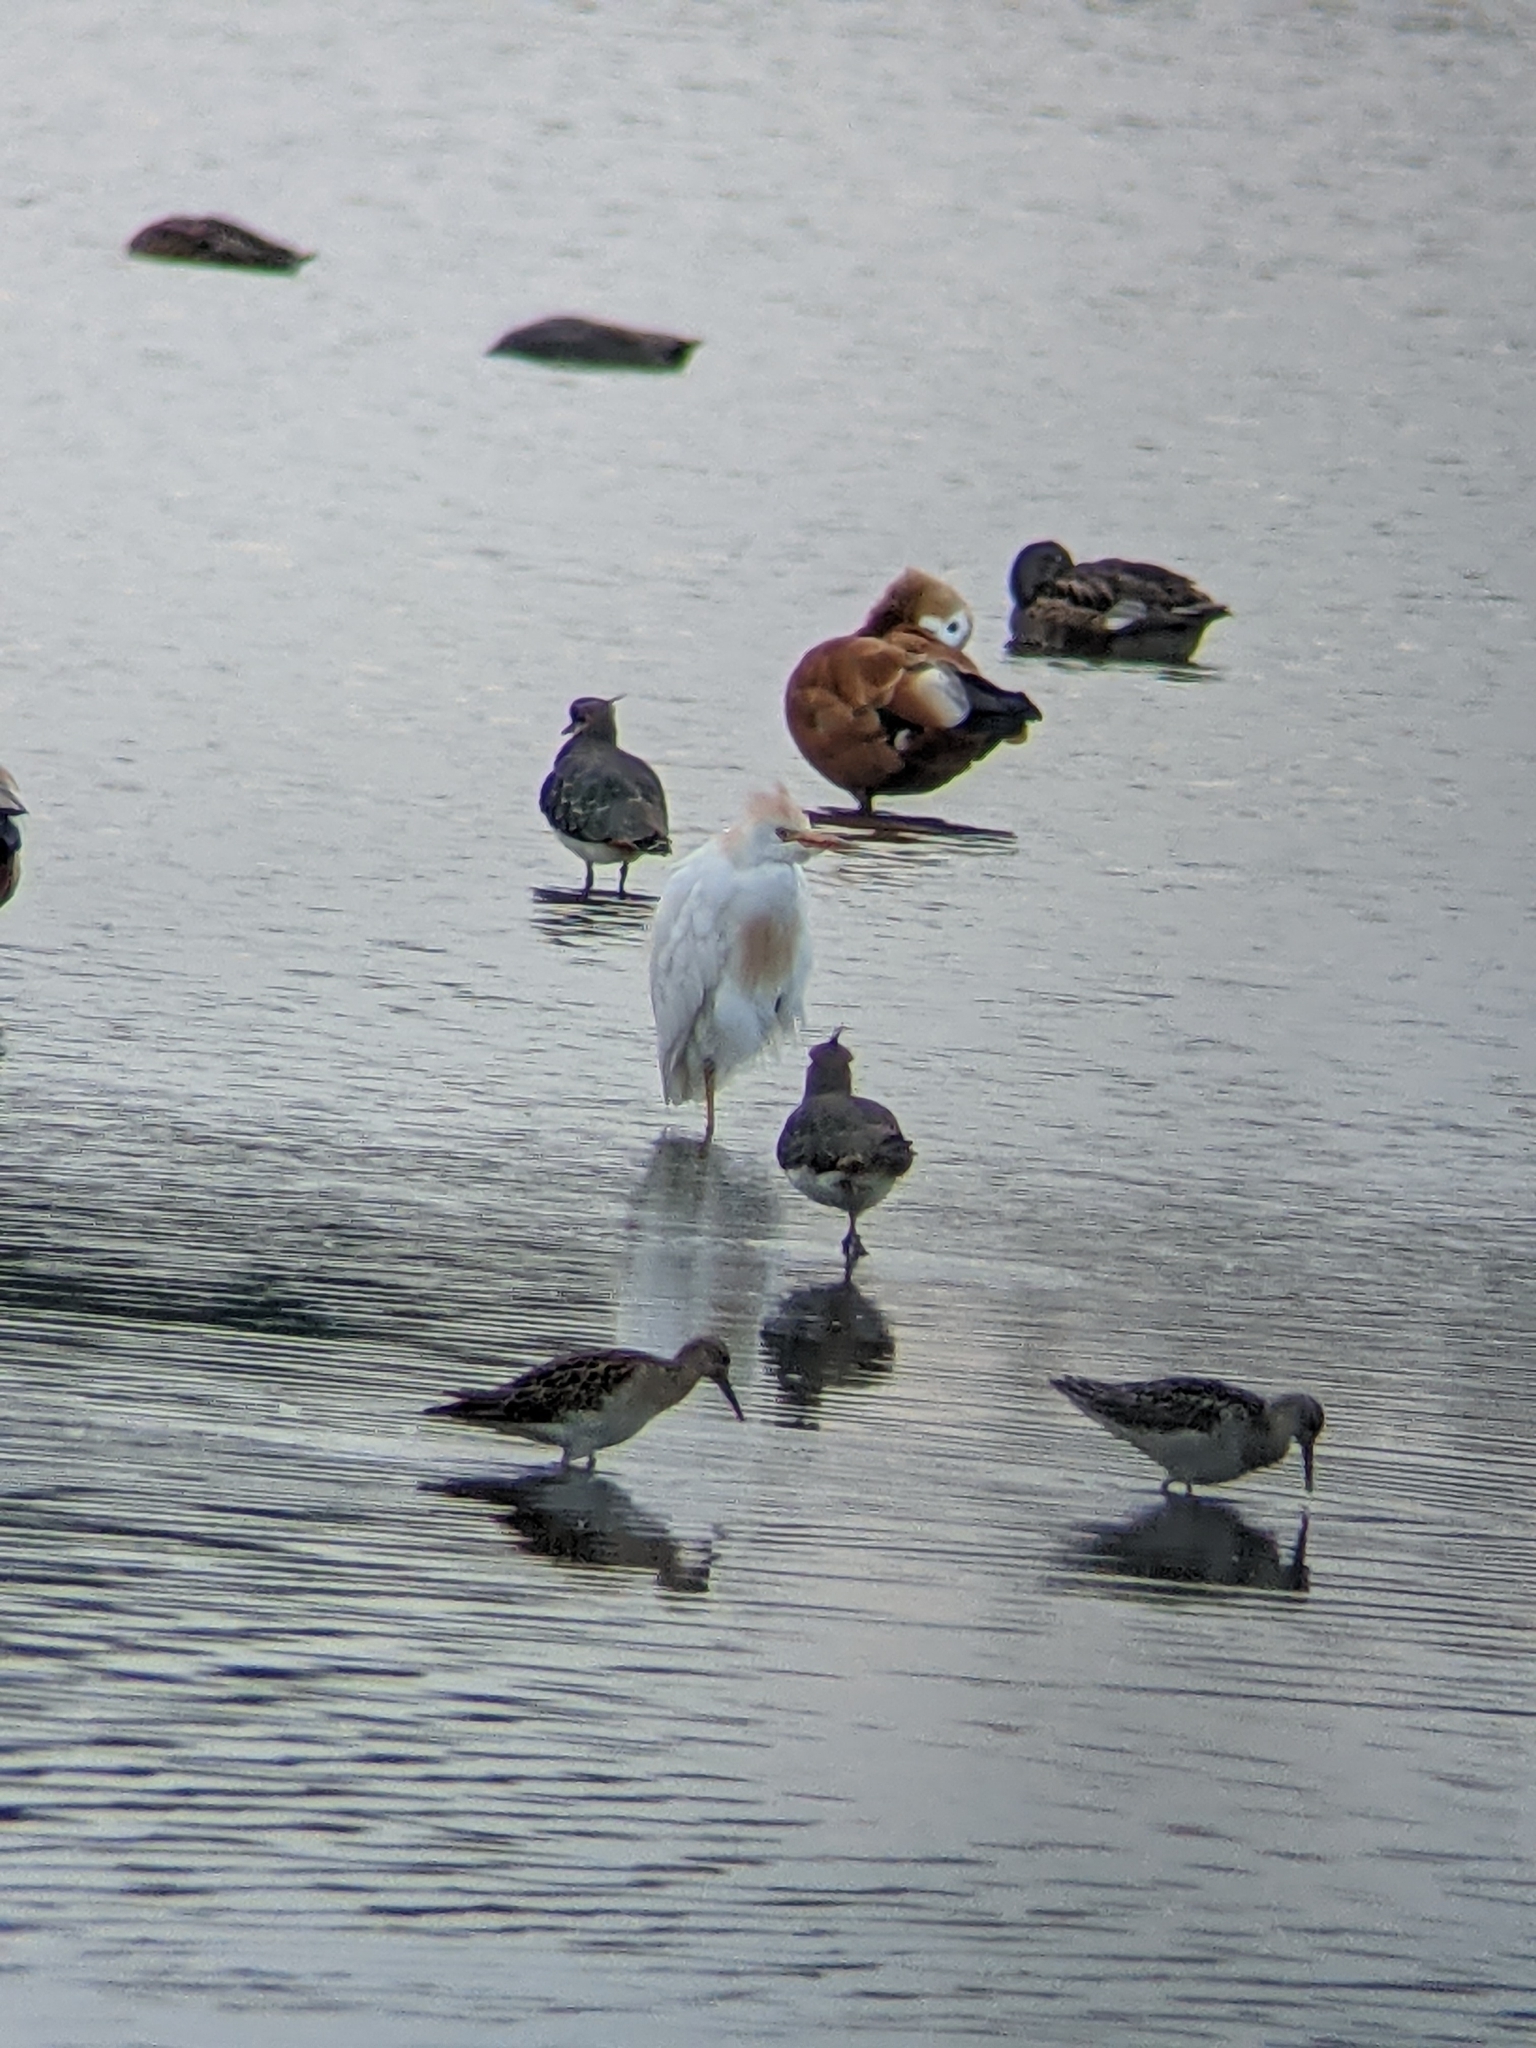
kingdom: Animalia
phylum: Chordata
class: Aves
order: Pelecaniformes
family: Ardeidae
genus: Bubulcus
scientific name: Bubulcus ibis
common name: Cattle egret
